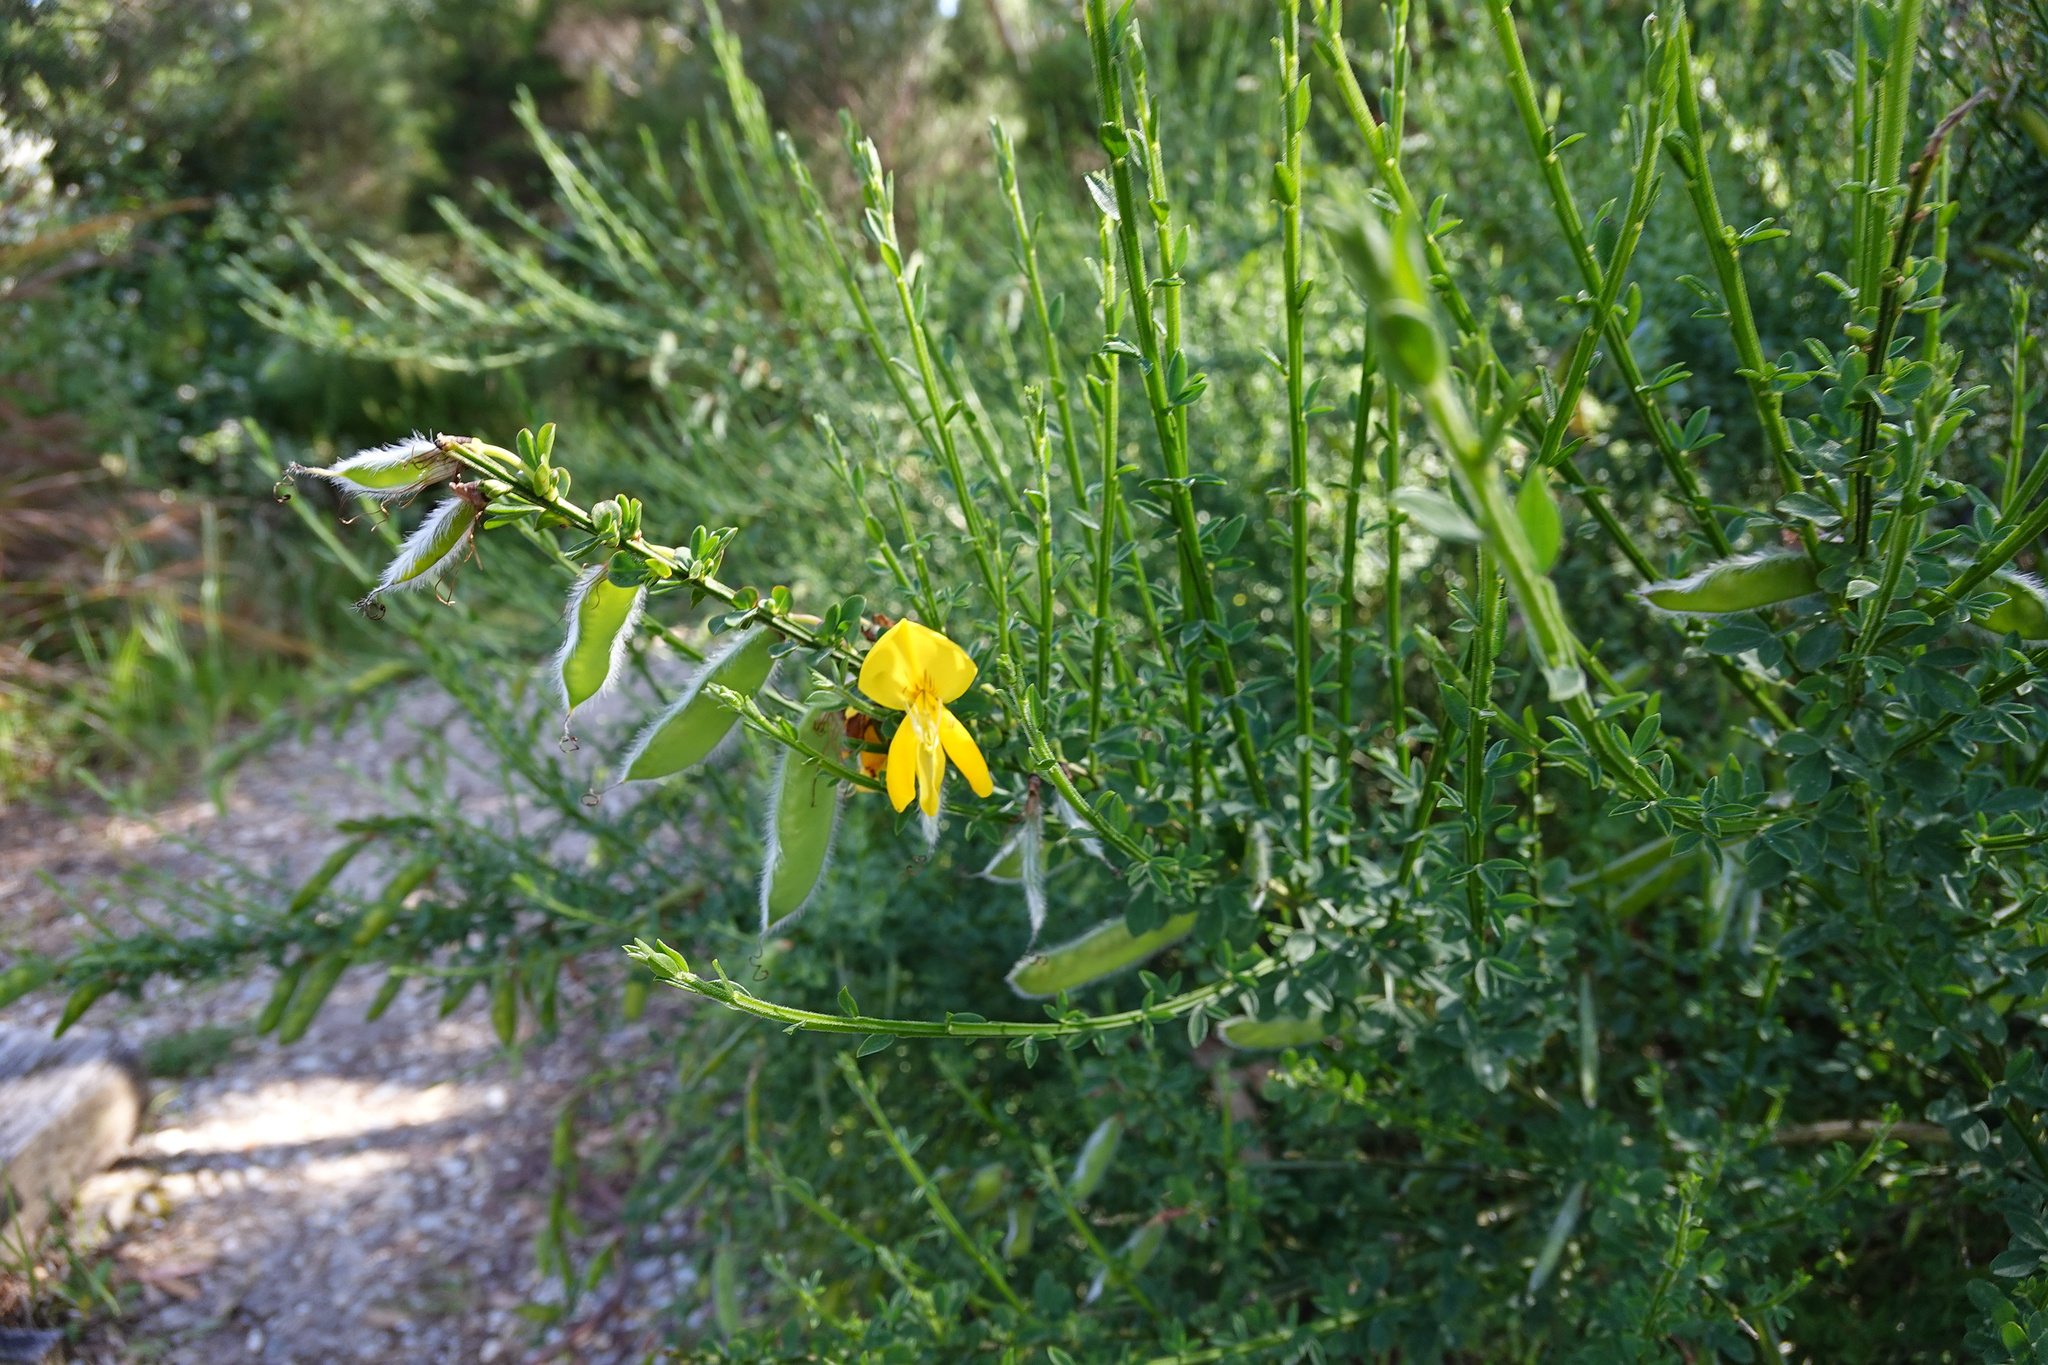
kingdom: Plantae
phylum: Tracheophyta
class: Magnoliopsida
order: Fabales
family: Fabaceae
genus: Cytisus
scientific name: Cytisus scoparius
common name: Scotch broom
